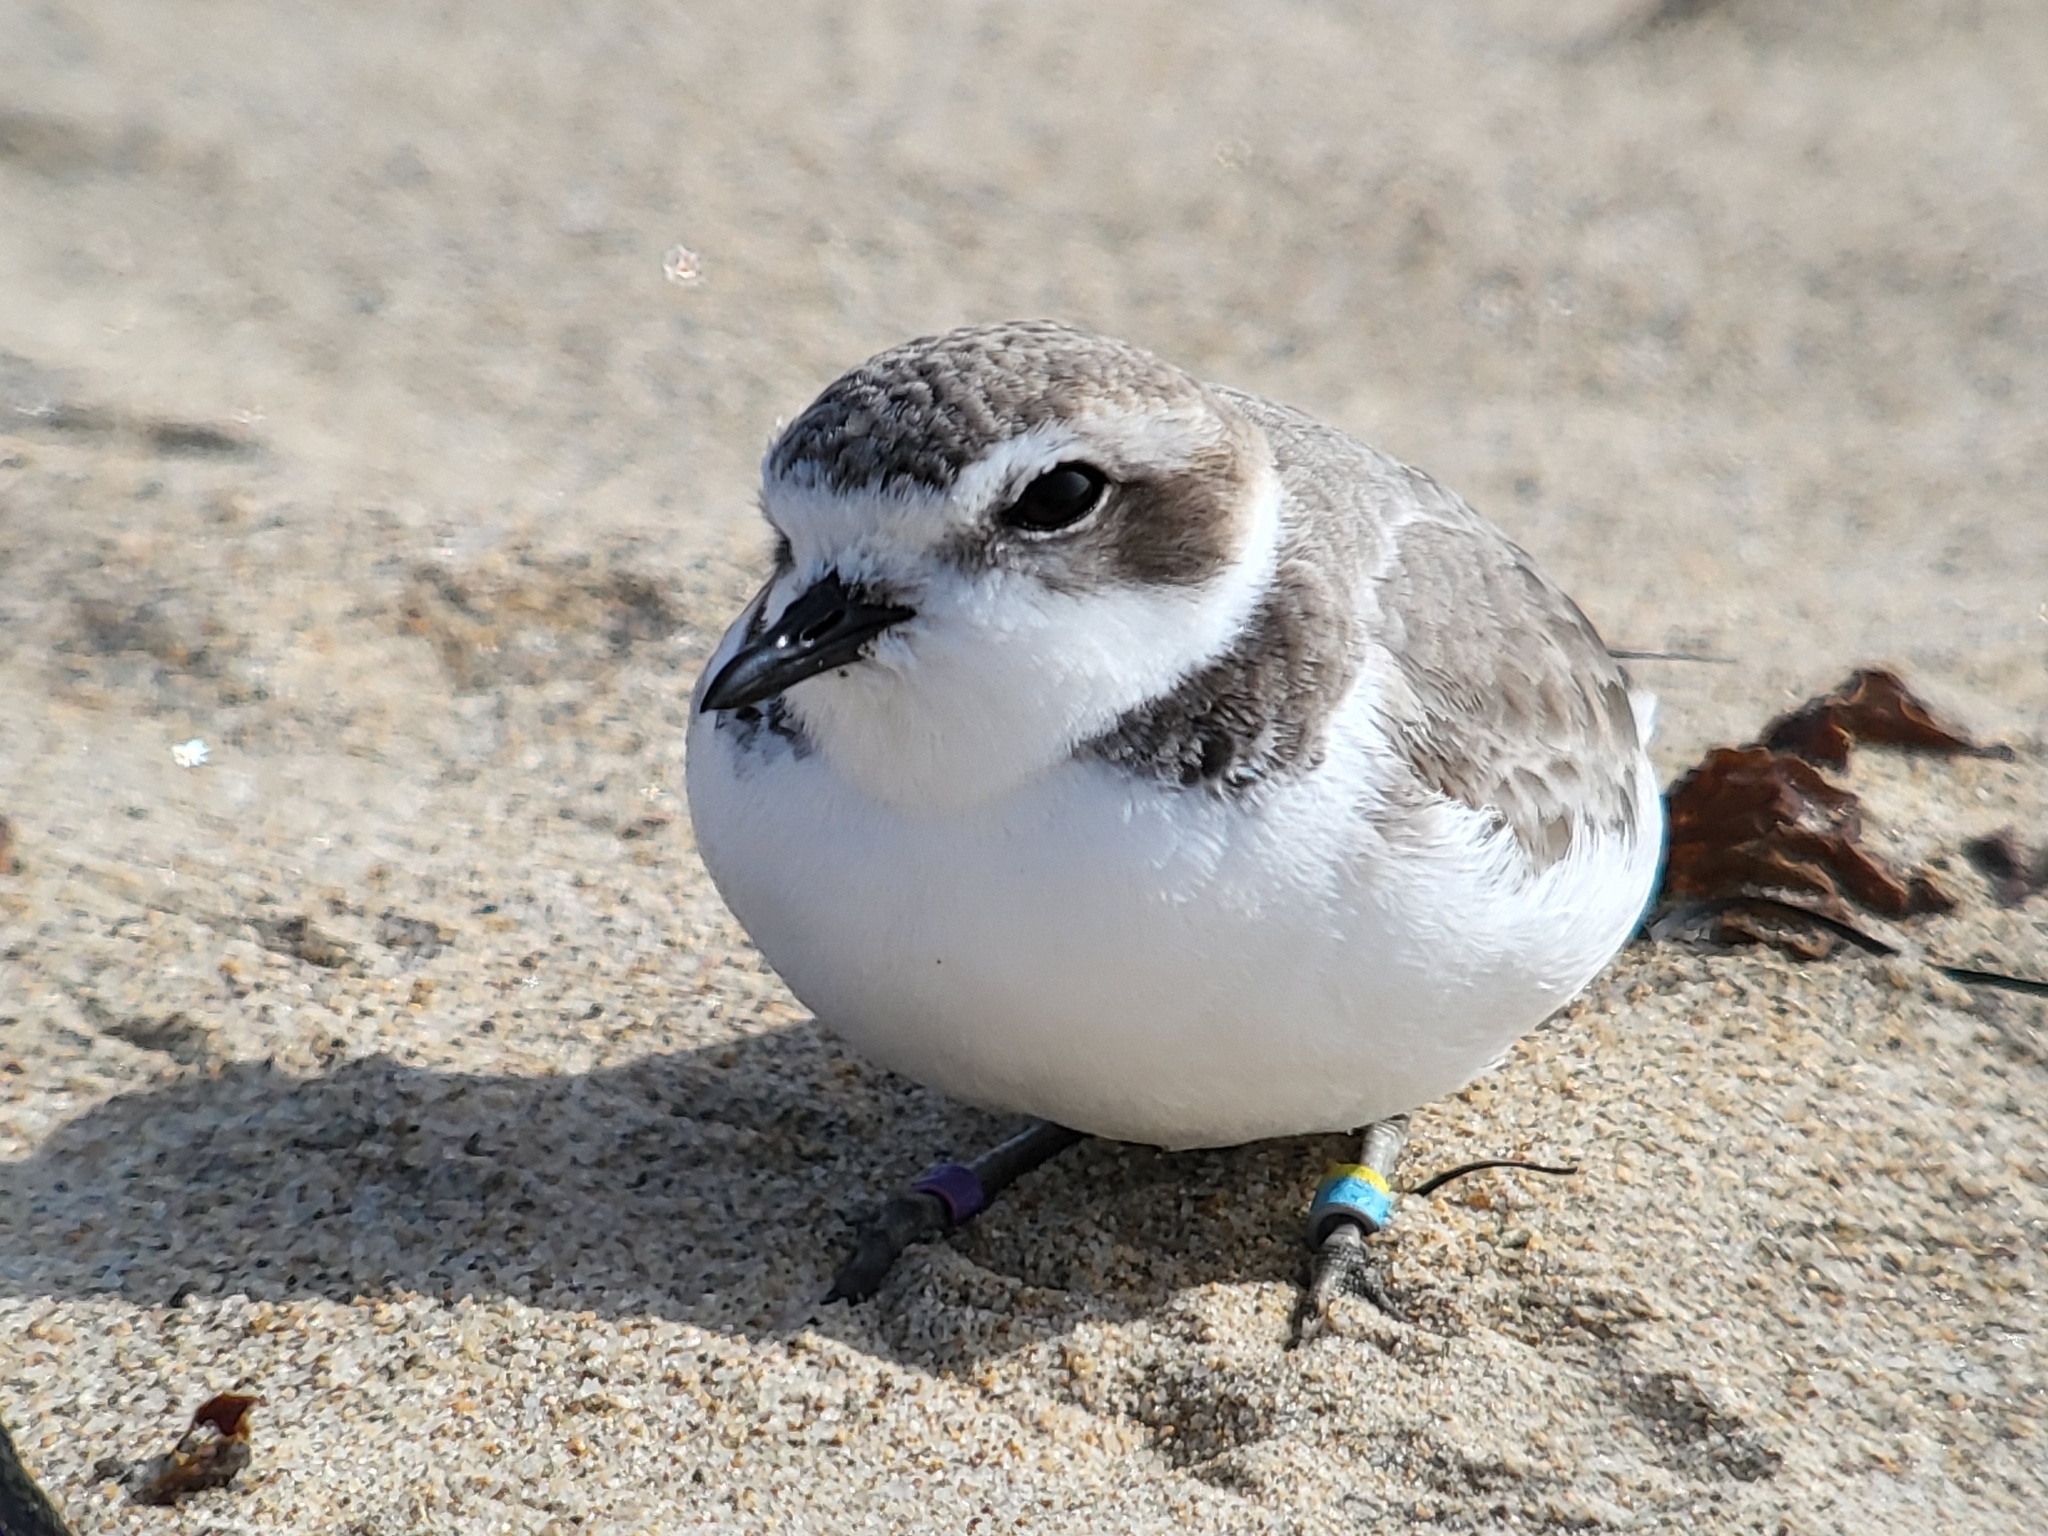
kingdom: Animalia
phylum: Chordata
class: Aves
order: Charadriiformes
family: Charadriidae
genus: Anarhynchus
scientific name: Anarhynchus
